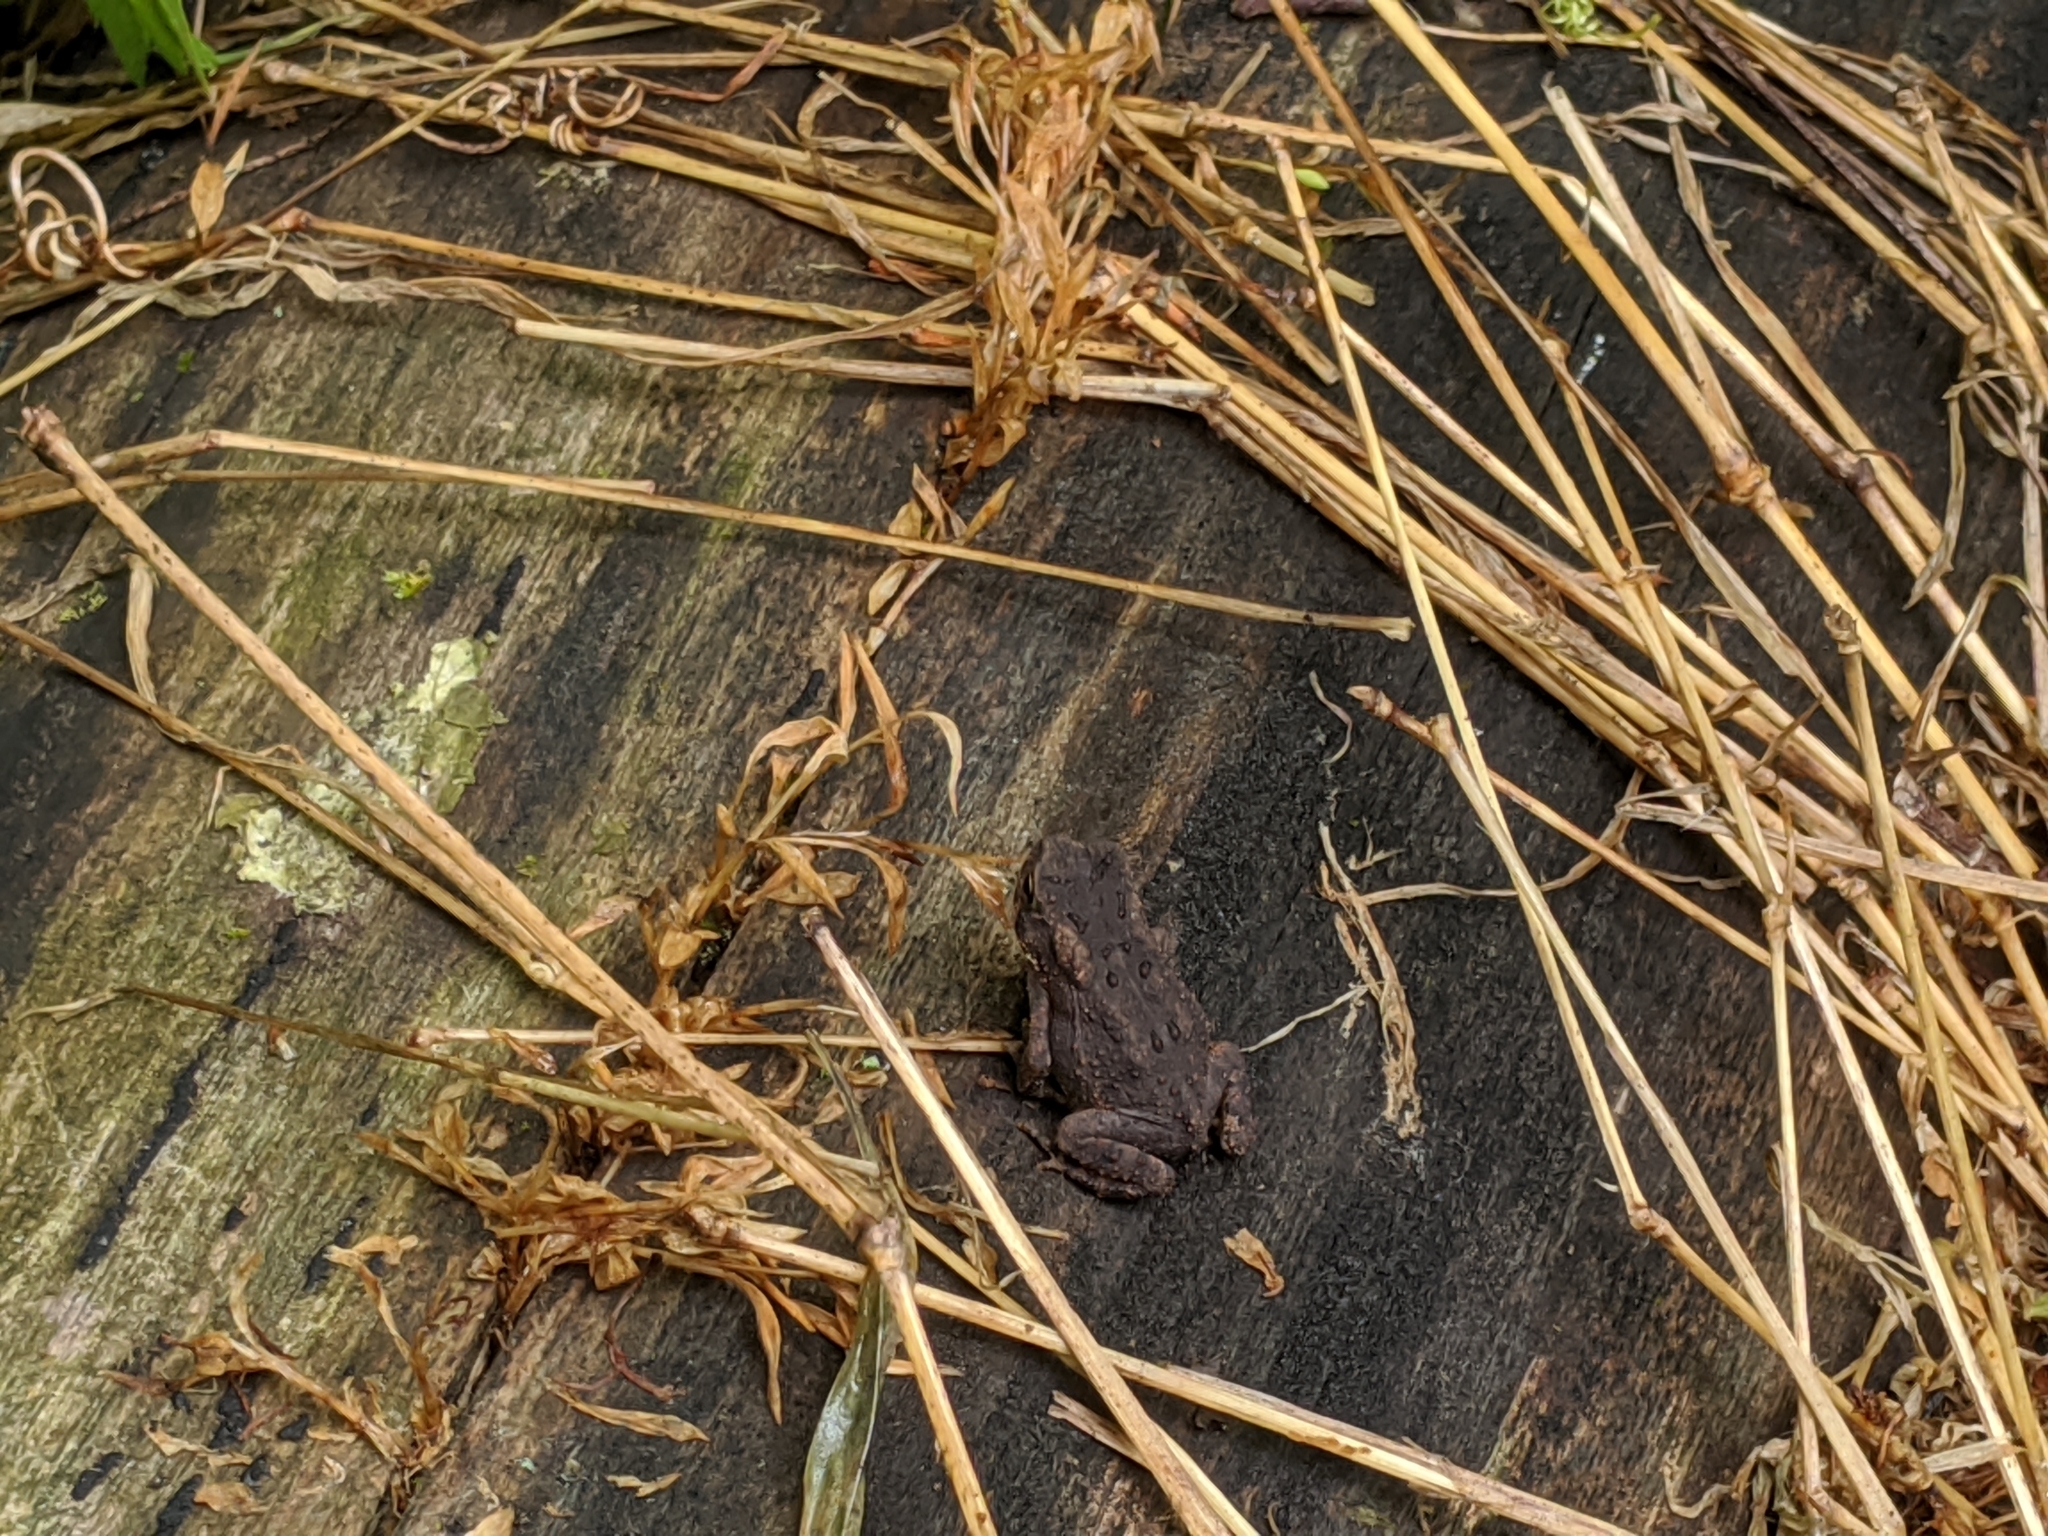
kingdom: Animalia
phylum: Chordata
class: Amphibia
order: Anura
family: Bufonidae
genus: Anaxyrus
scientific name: Anaxyrus americanus
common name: American toad
